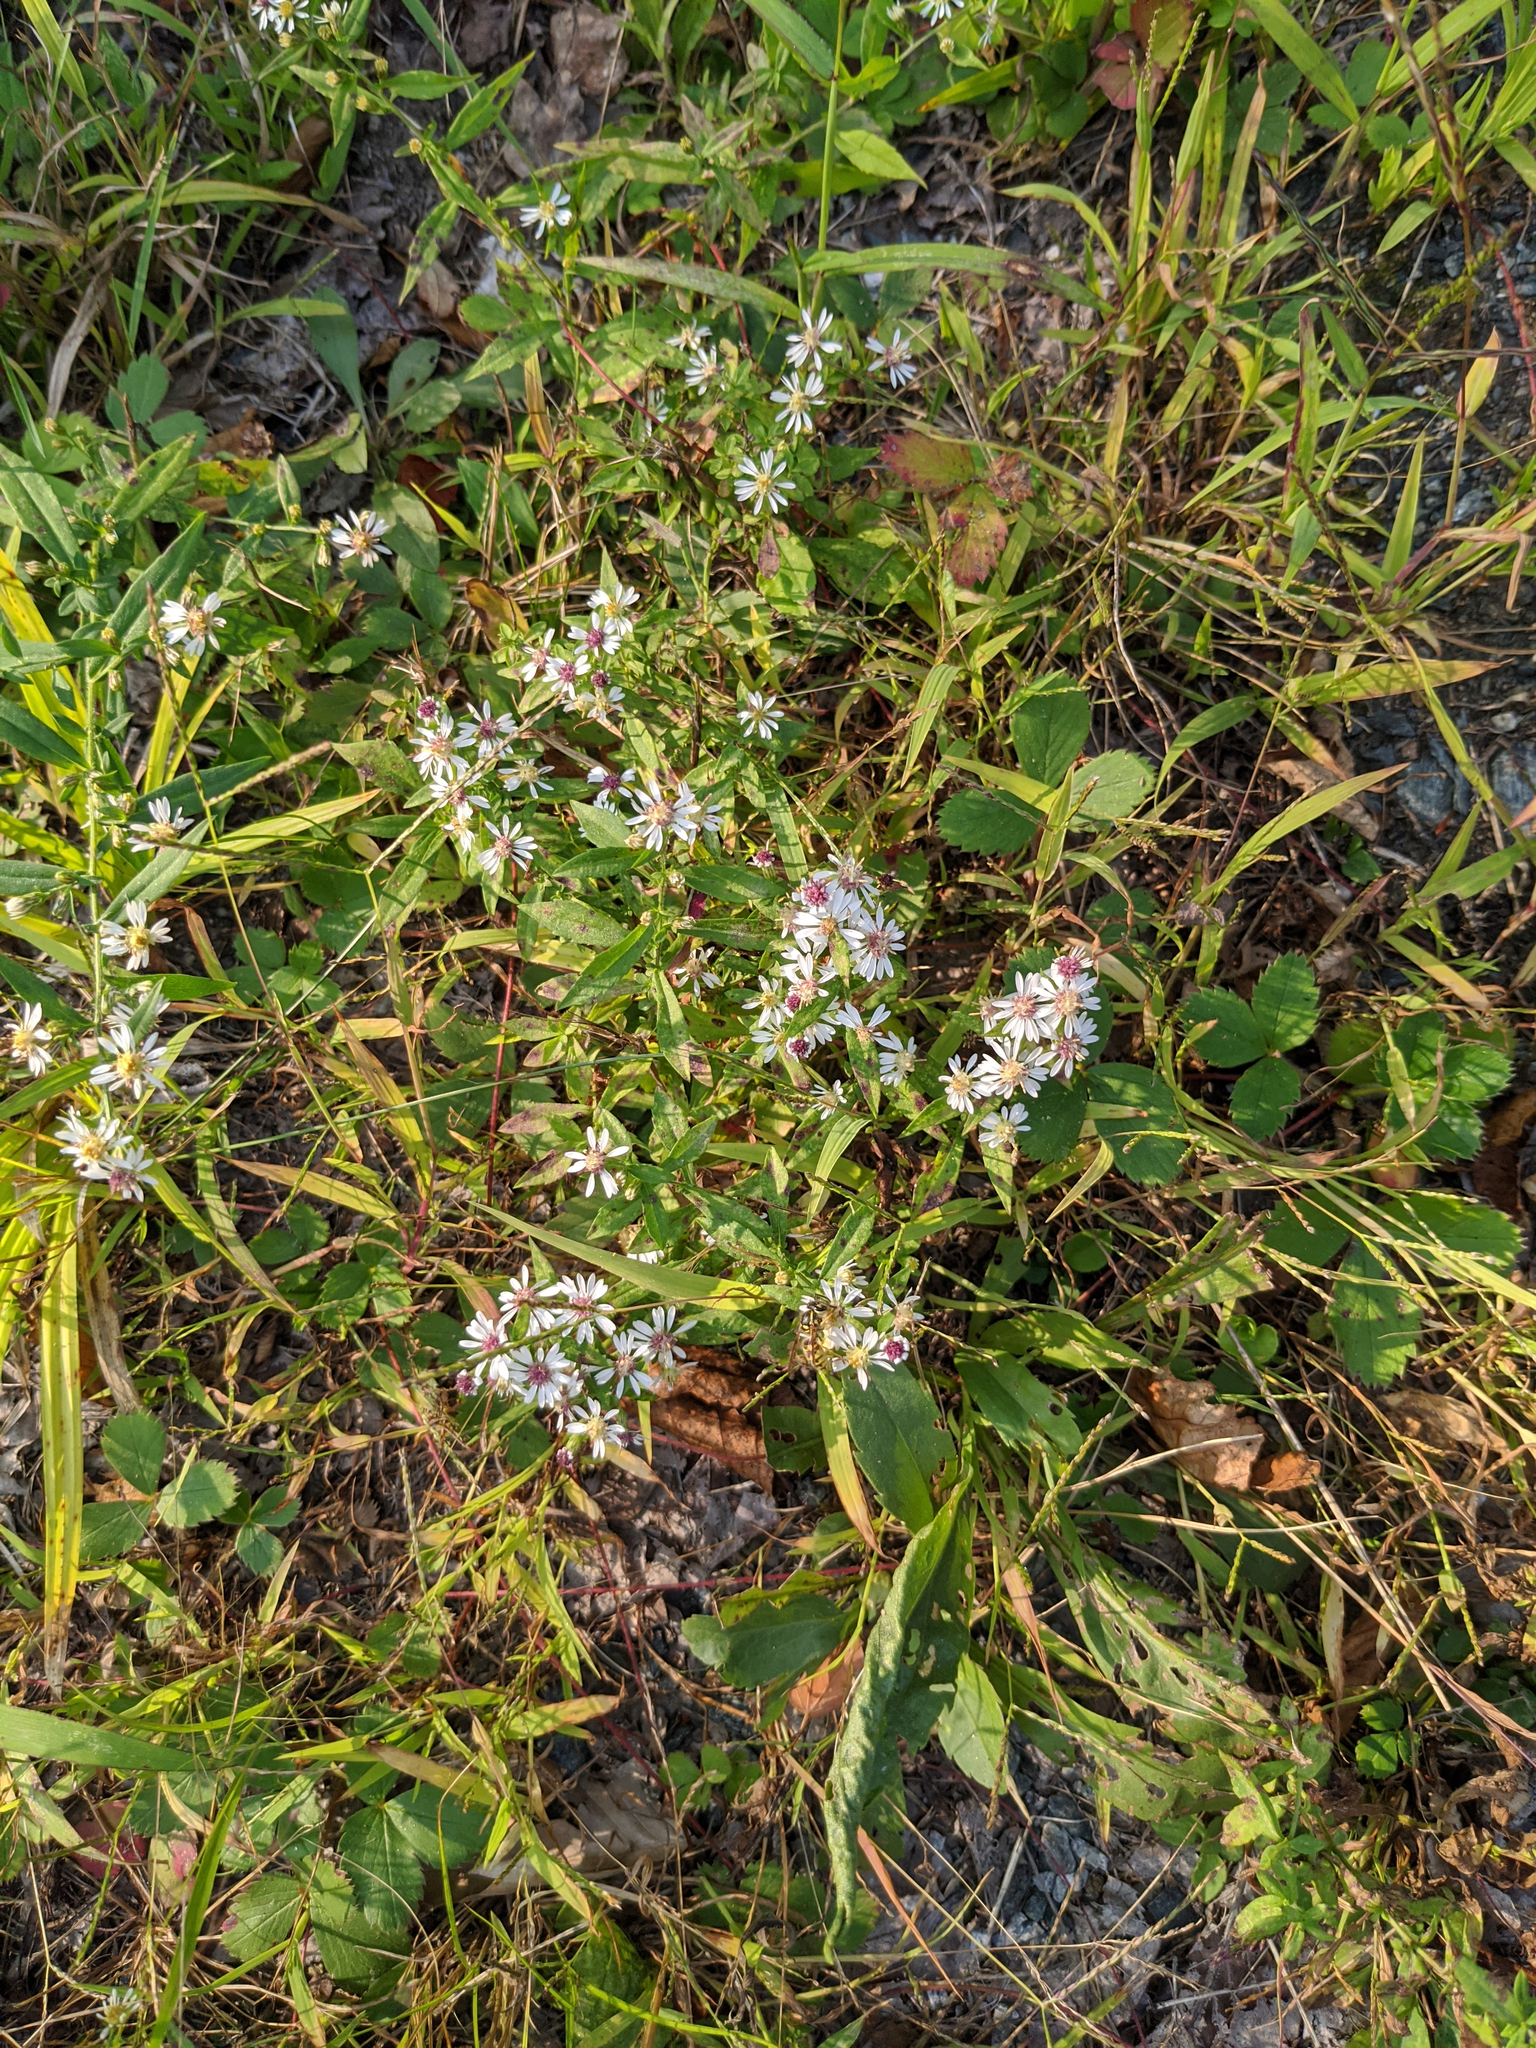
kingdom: Plantae
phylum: Tracheophyta
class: Magnoliopsida
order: Asterales
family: Asteraceae
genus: Symphyotrichum
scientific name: Symphyotrichum lateriflorum
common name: Calico aster
